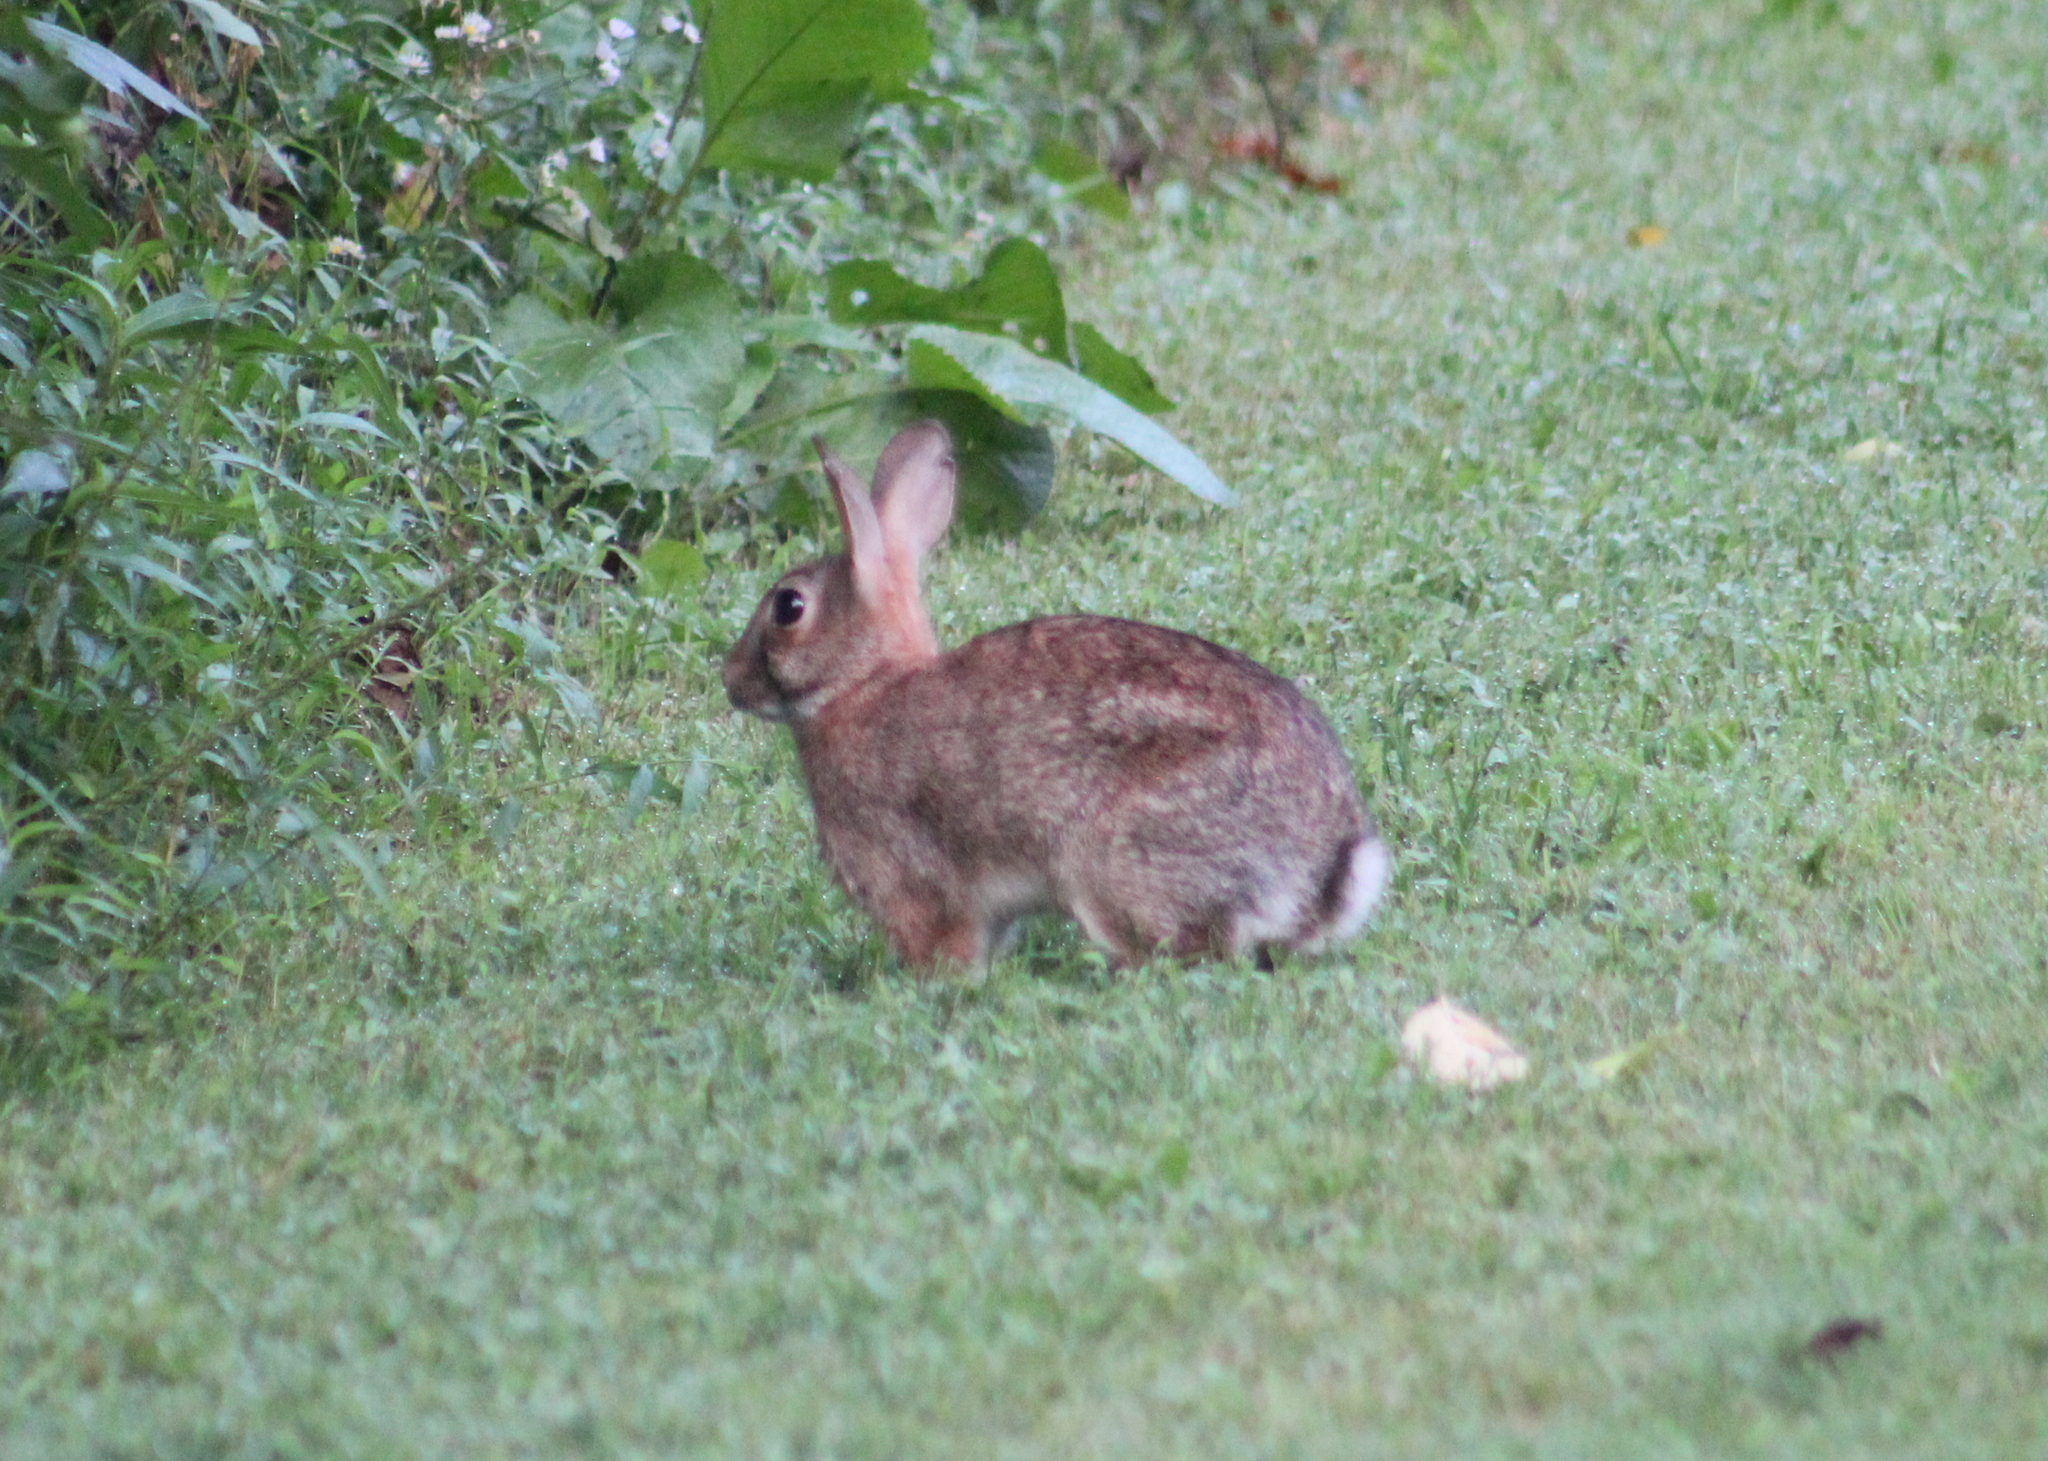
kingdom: Animalia
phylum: Chordata
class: Mammalia
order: Lagomorpha
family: Leporidae
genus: Sylvilagus
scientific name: Sylvilagus floridanus
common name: Eastern cottontail
